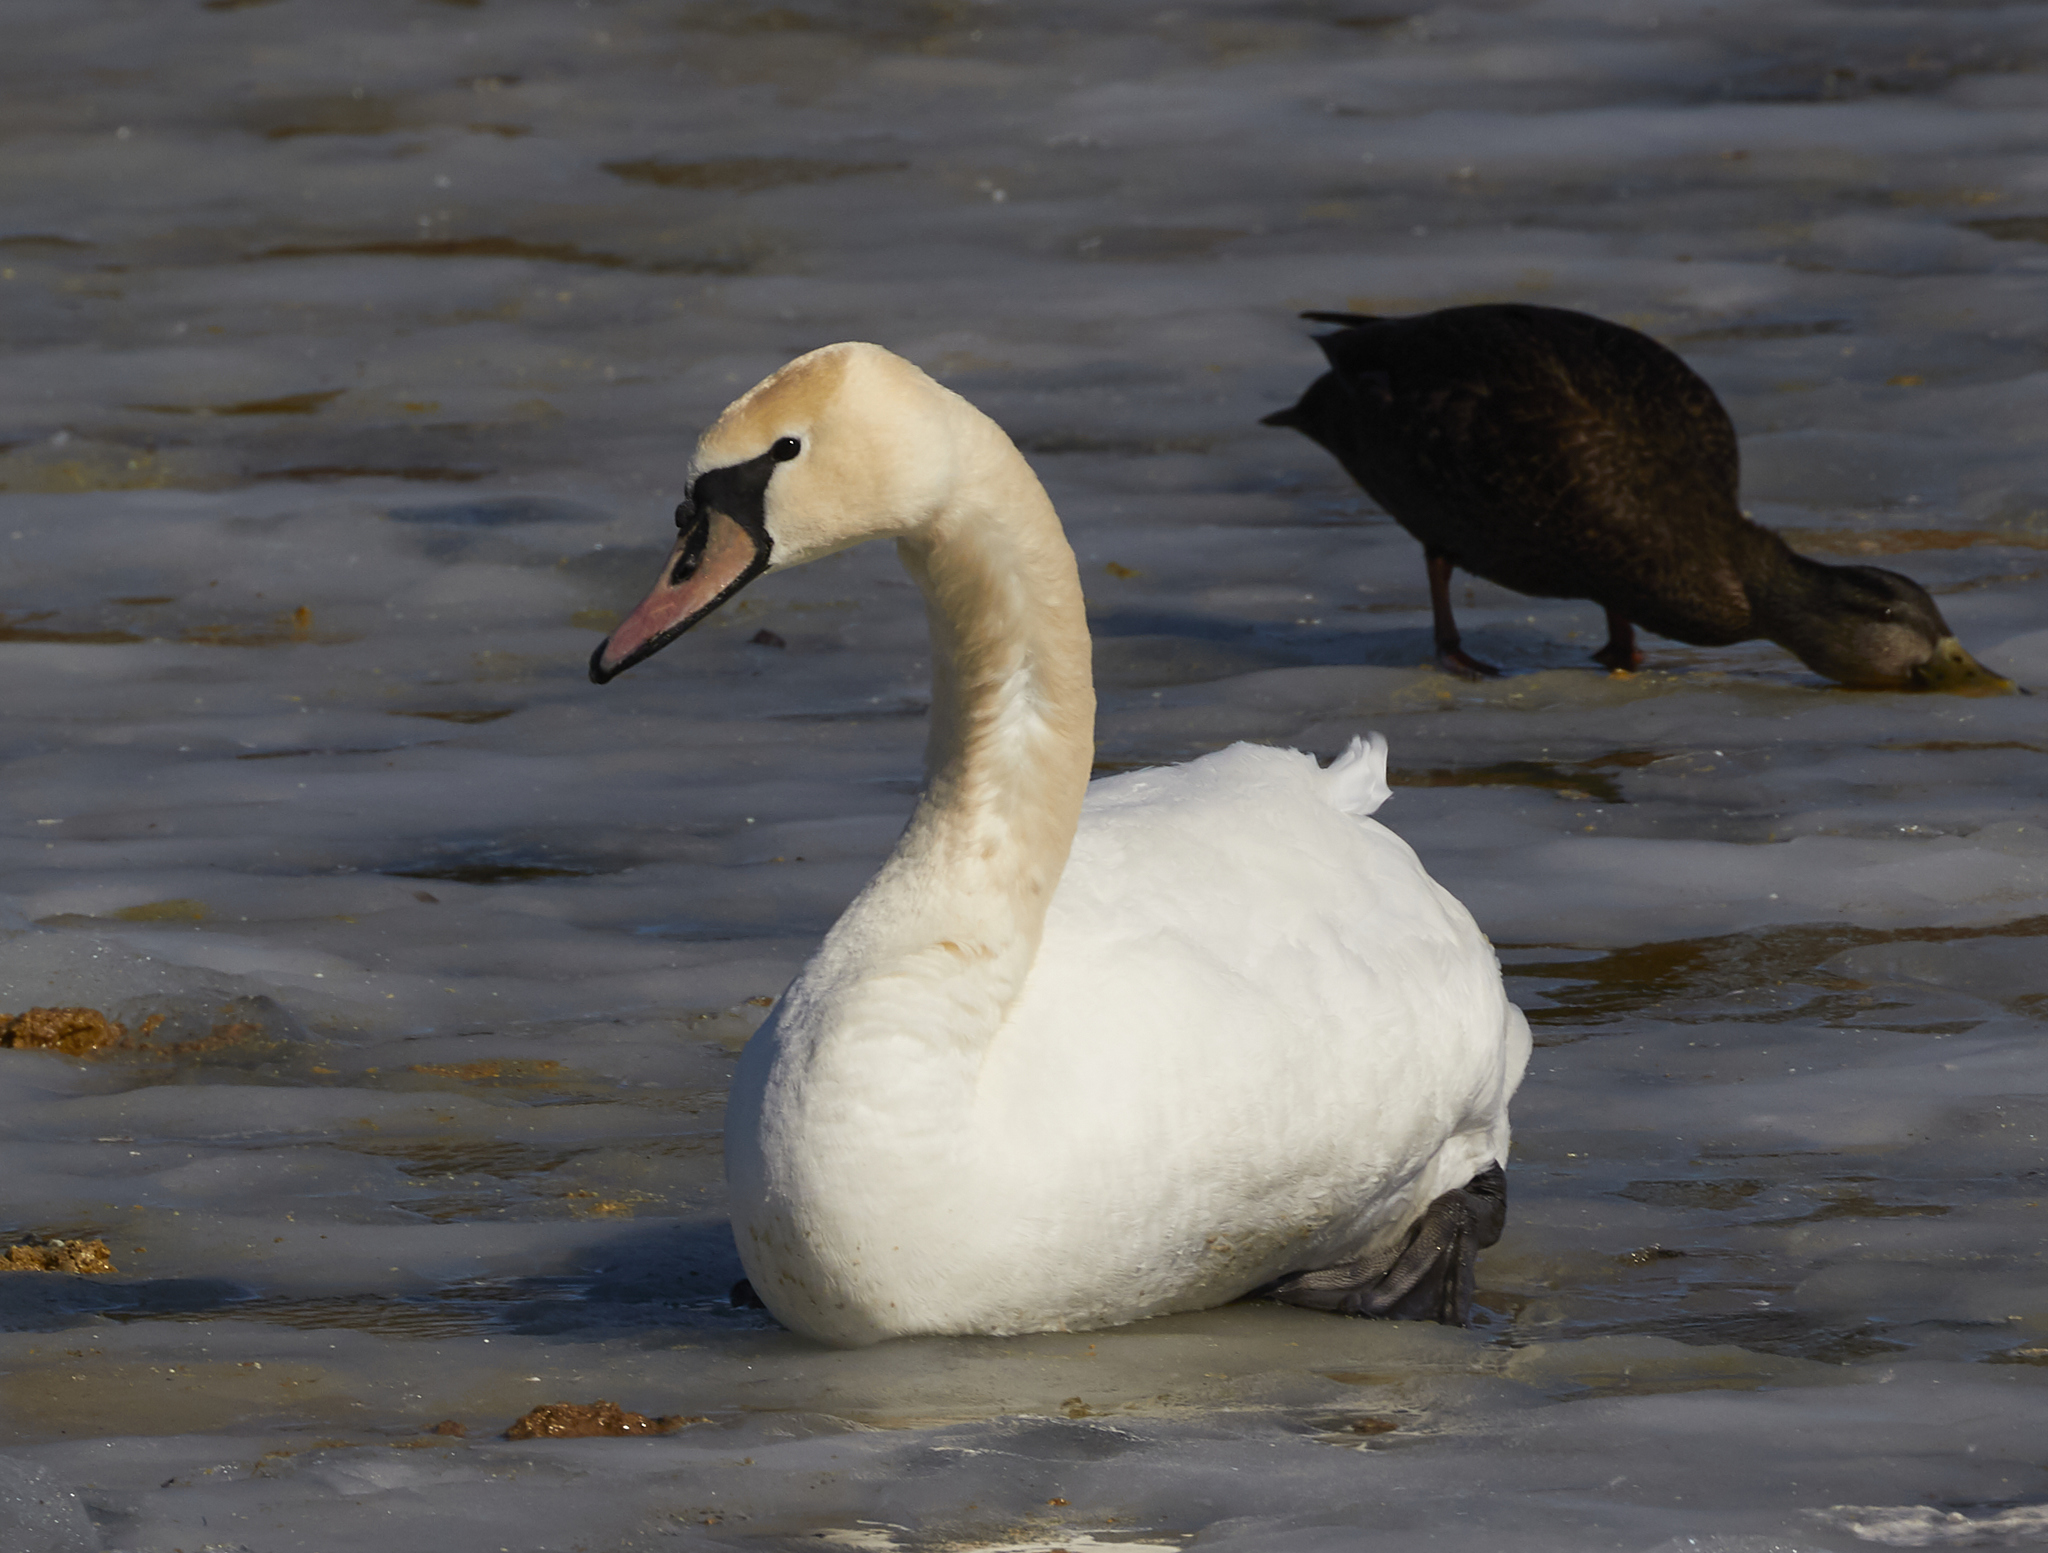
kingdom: Animalia
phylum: Chordata
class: Aves
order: Anseriformes
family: Anatidae
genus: Cygnus
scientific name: Cygnus olor
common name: Mute swan
